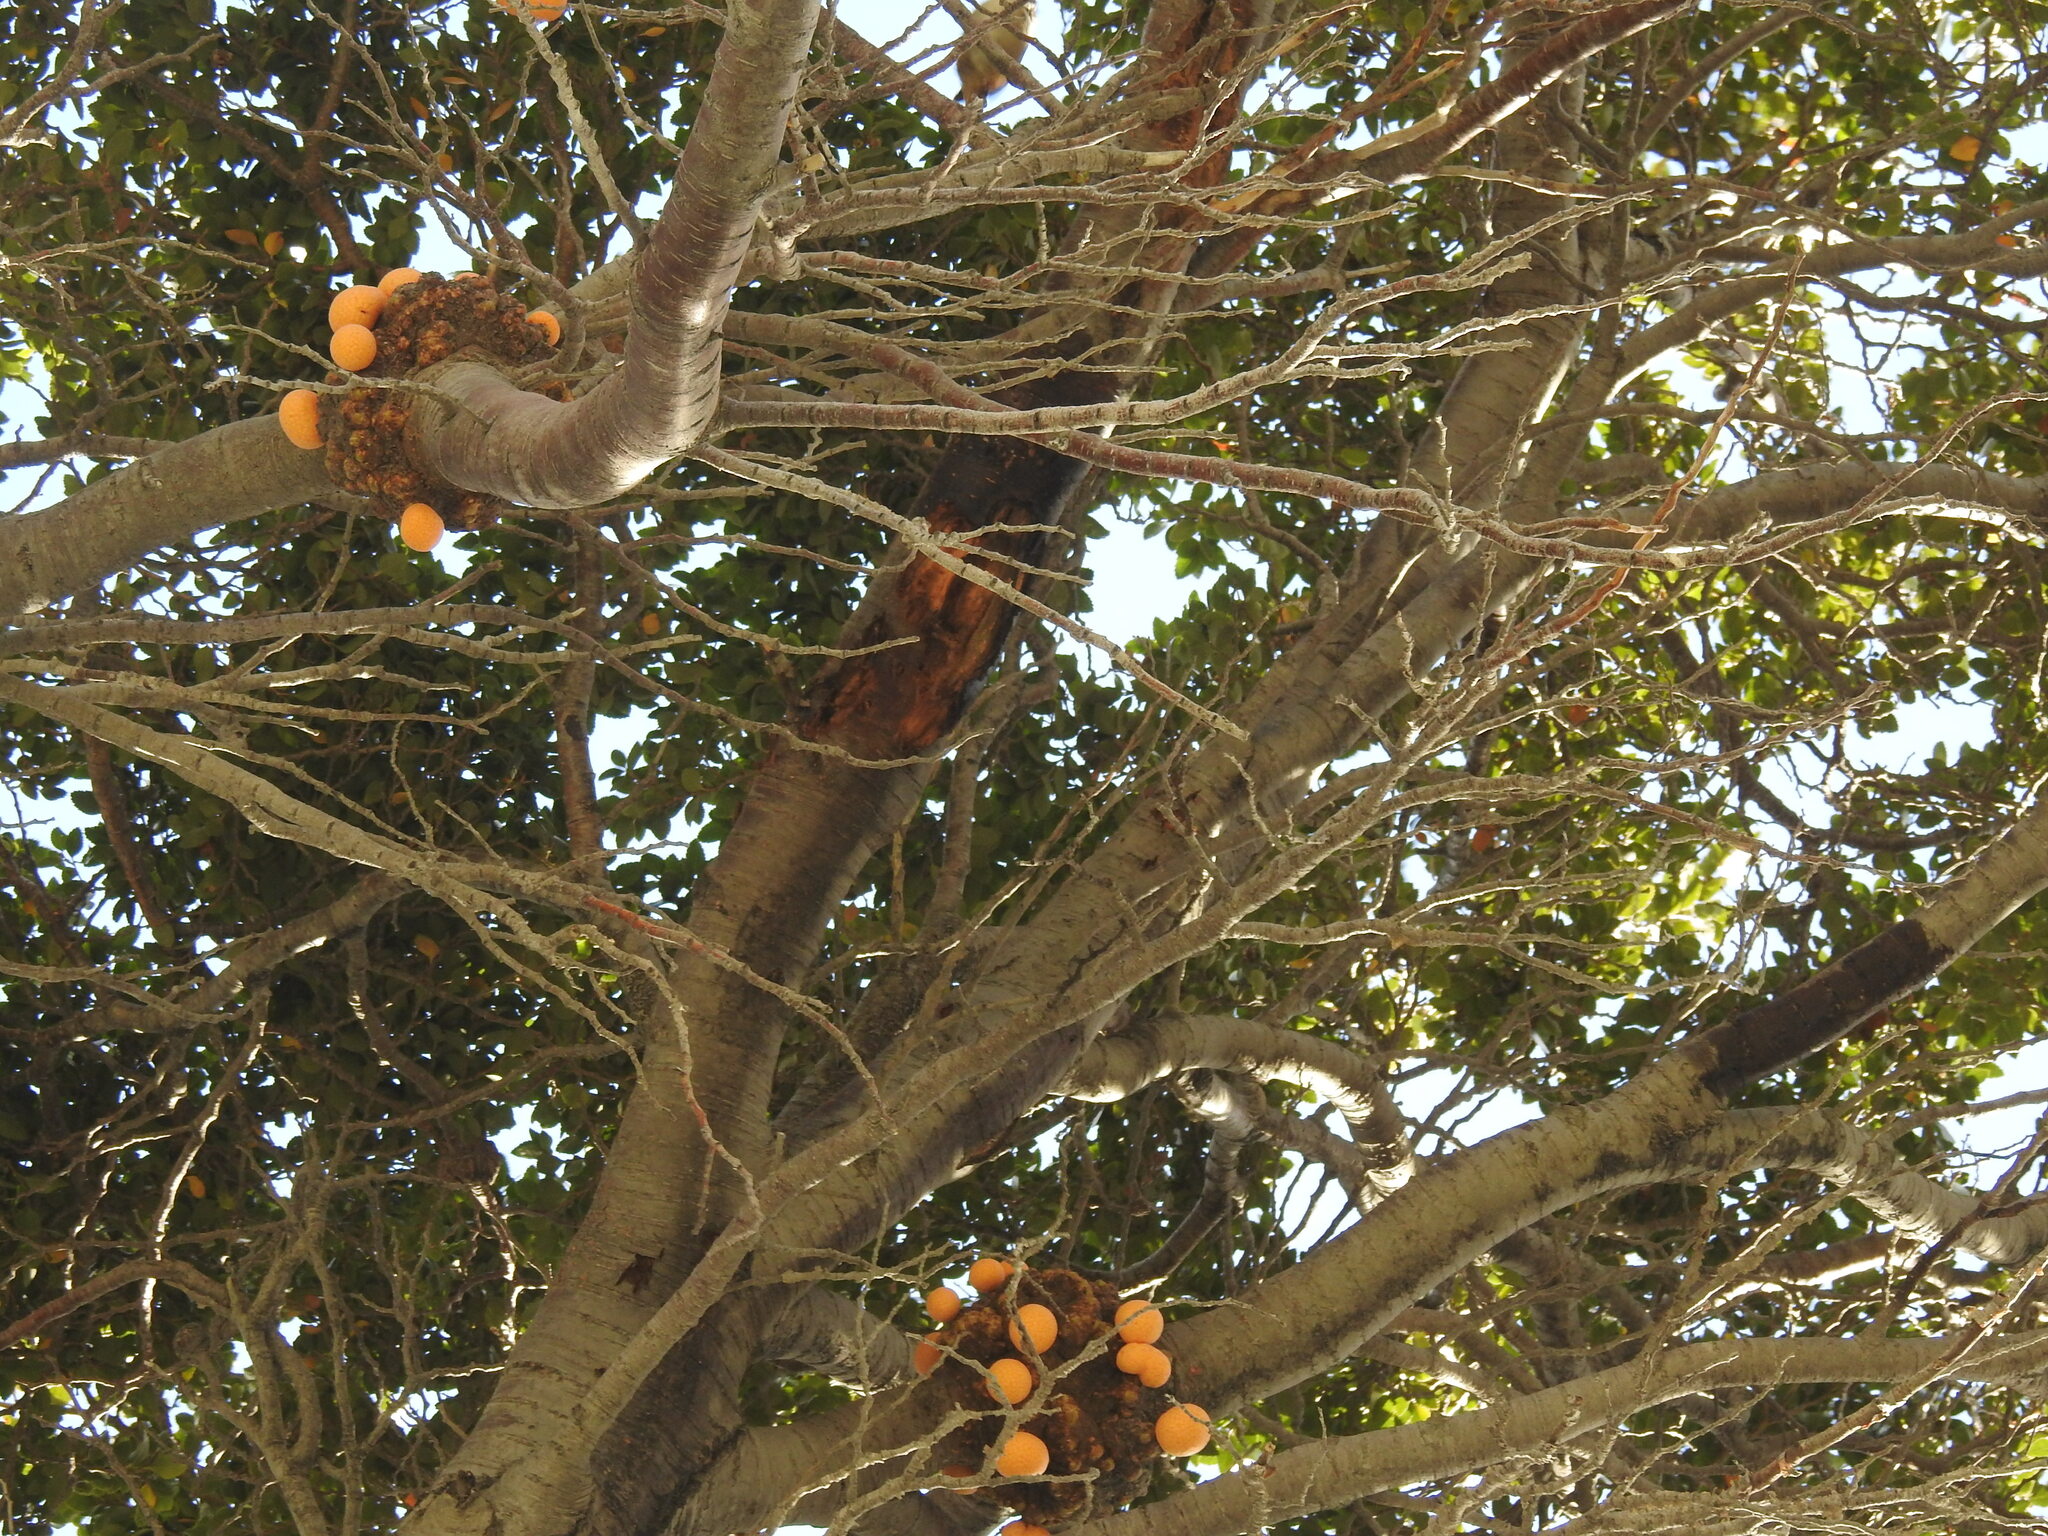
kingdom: Fungi
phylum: Ascomycota
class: Leotiomycetes
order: Cyttariales
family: Cyttariaceae
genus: Cyttaria
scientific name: Cyttaria hariotii
